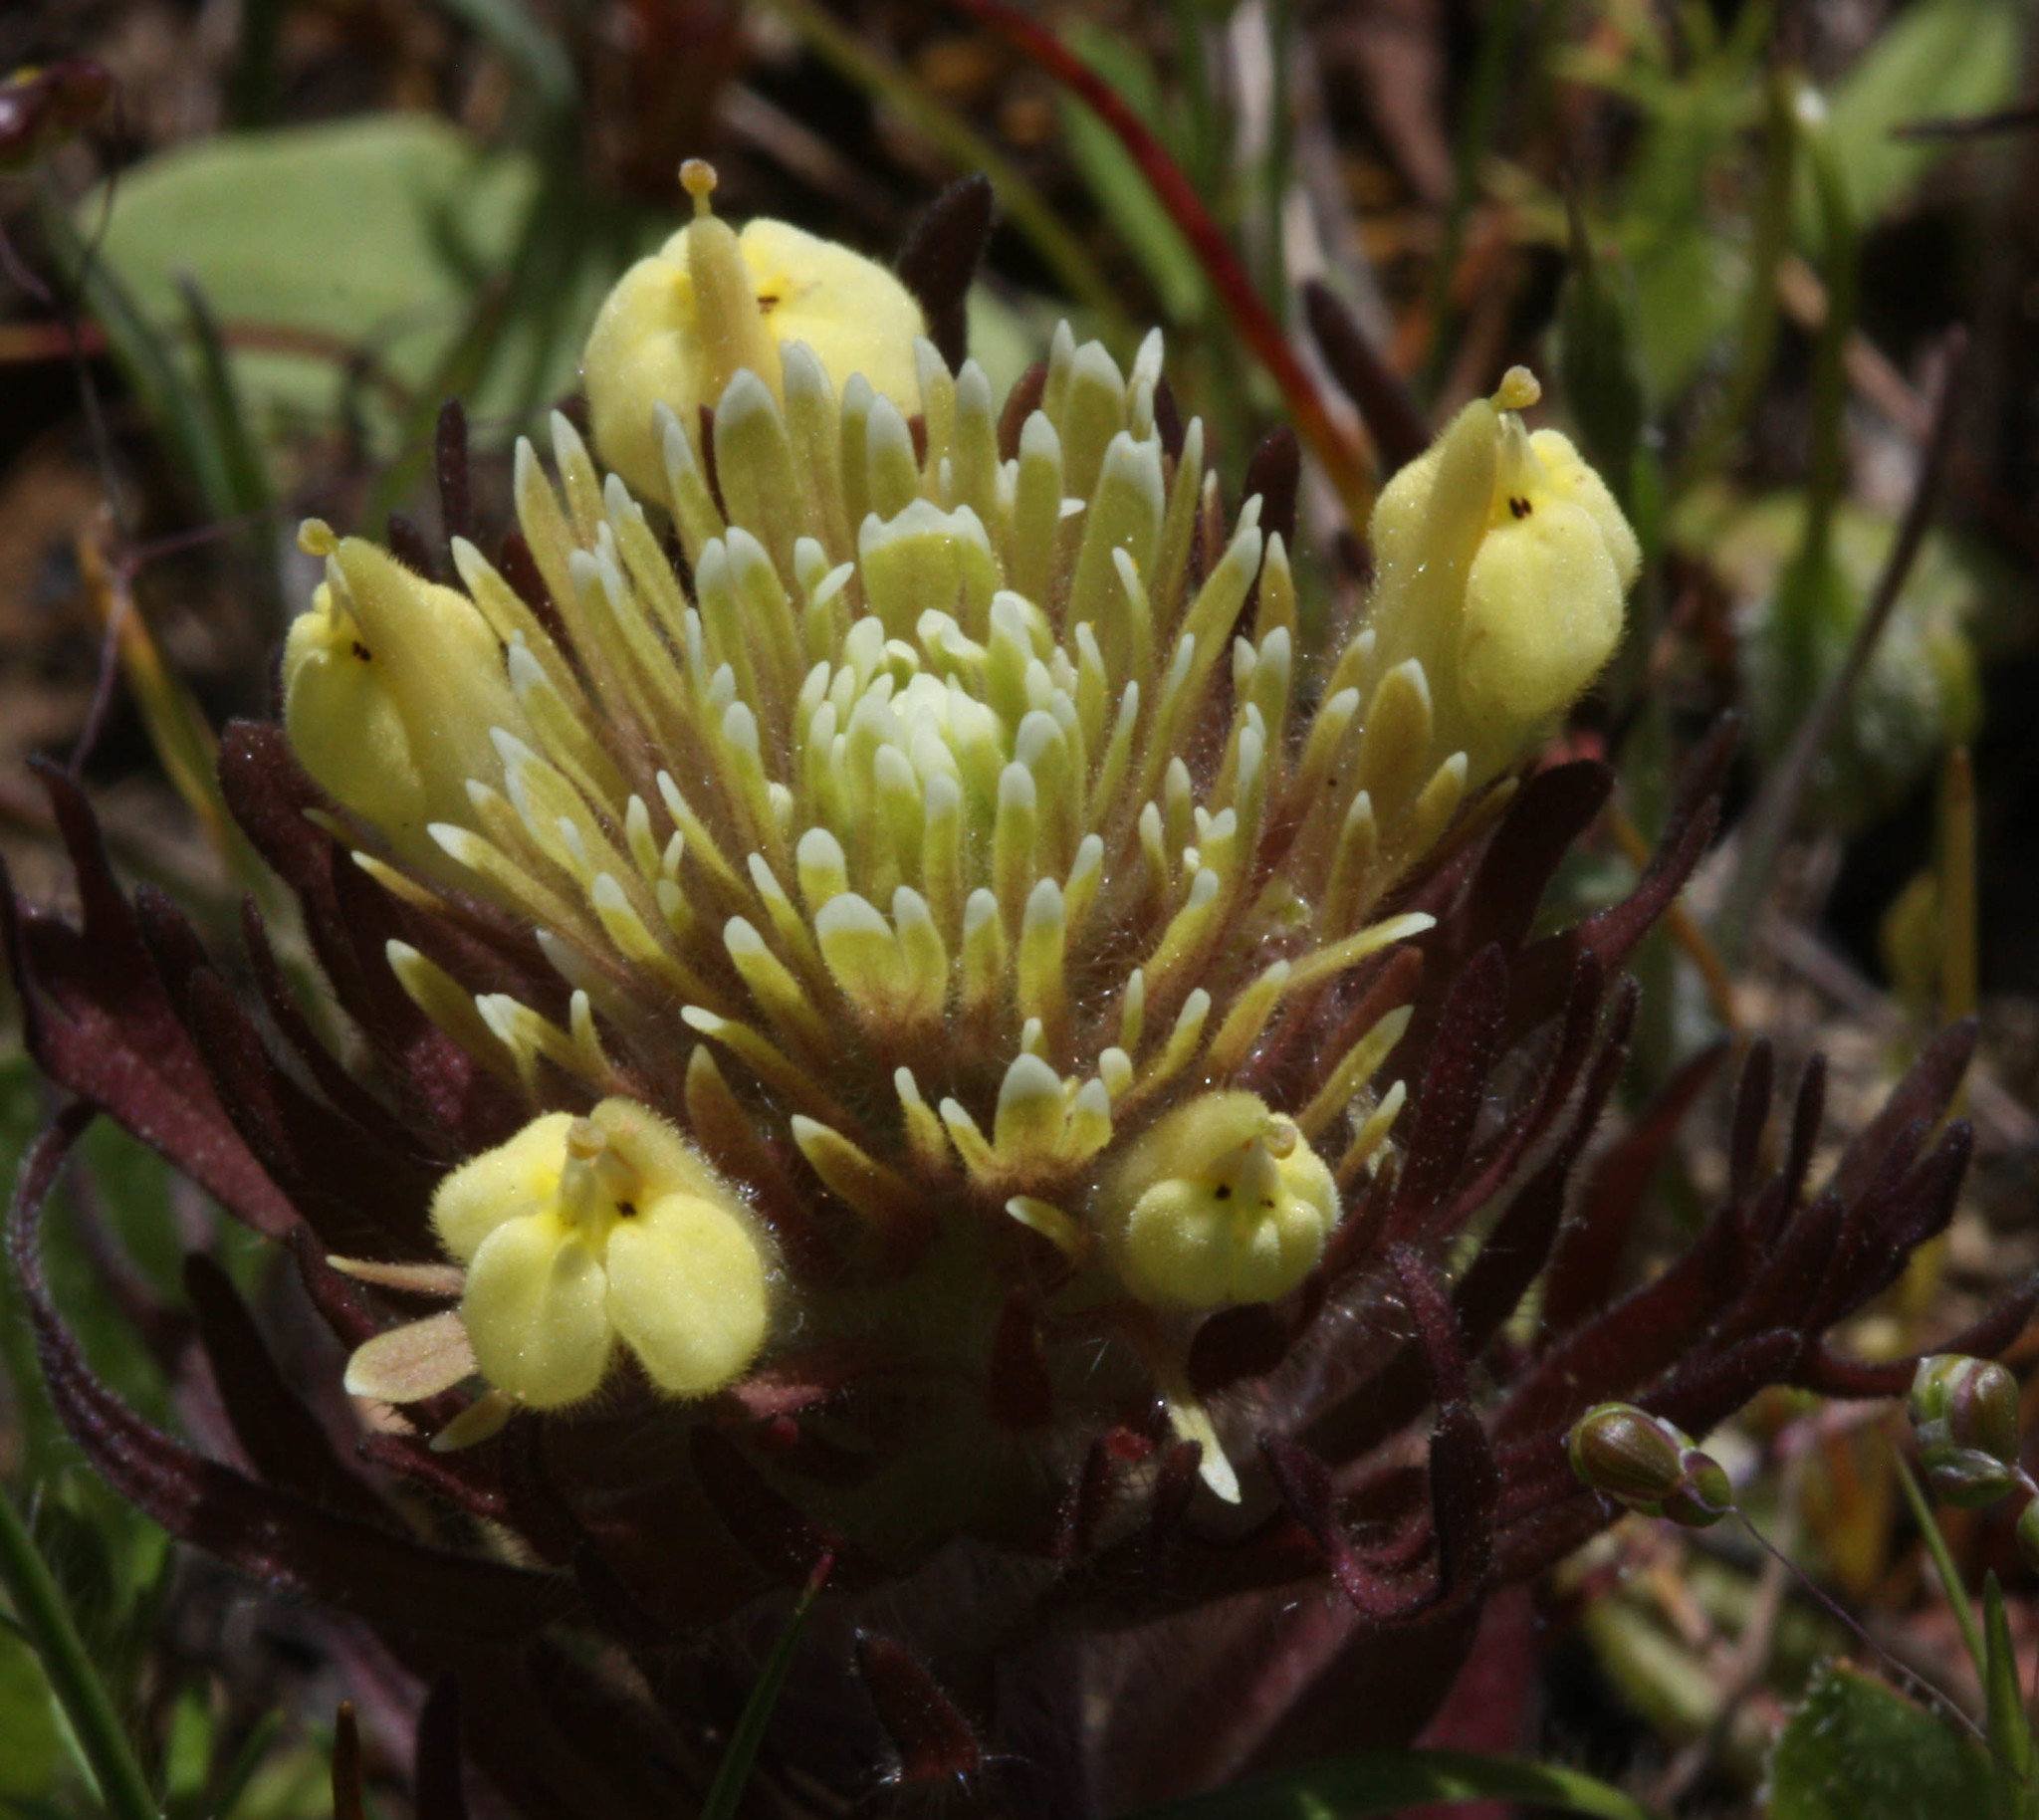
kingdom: Plantae
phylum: Tracheophyta
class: Magnoliopsida
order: Lamiales
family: Orobanchaceae
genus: Castilleja
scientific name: Castilleja ambigua
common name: Johnny-nip
